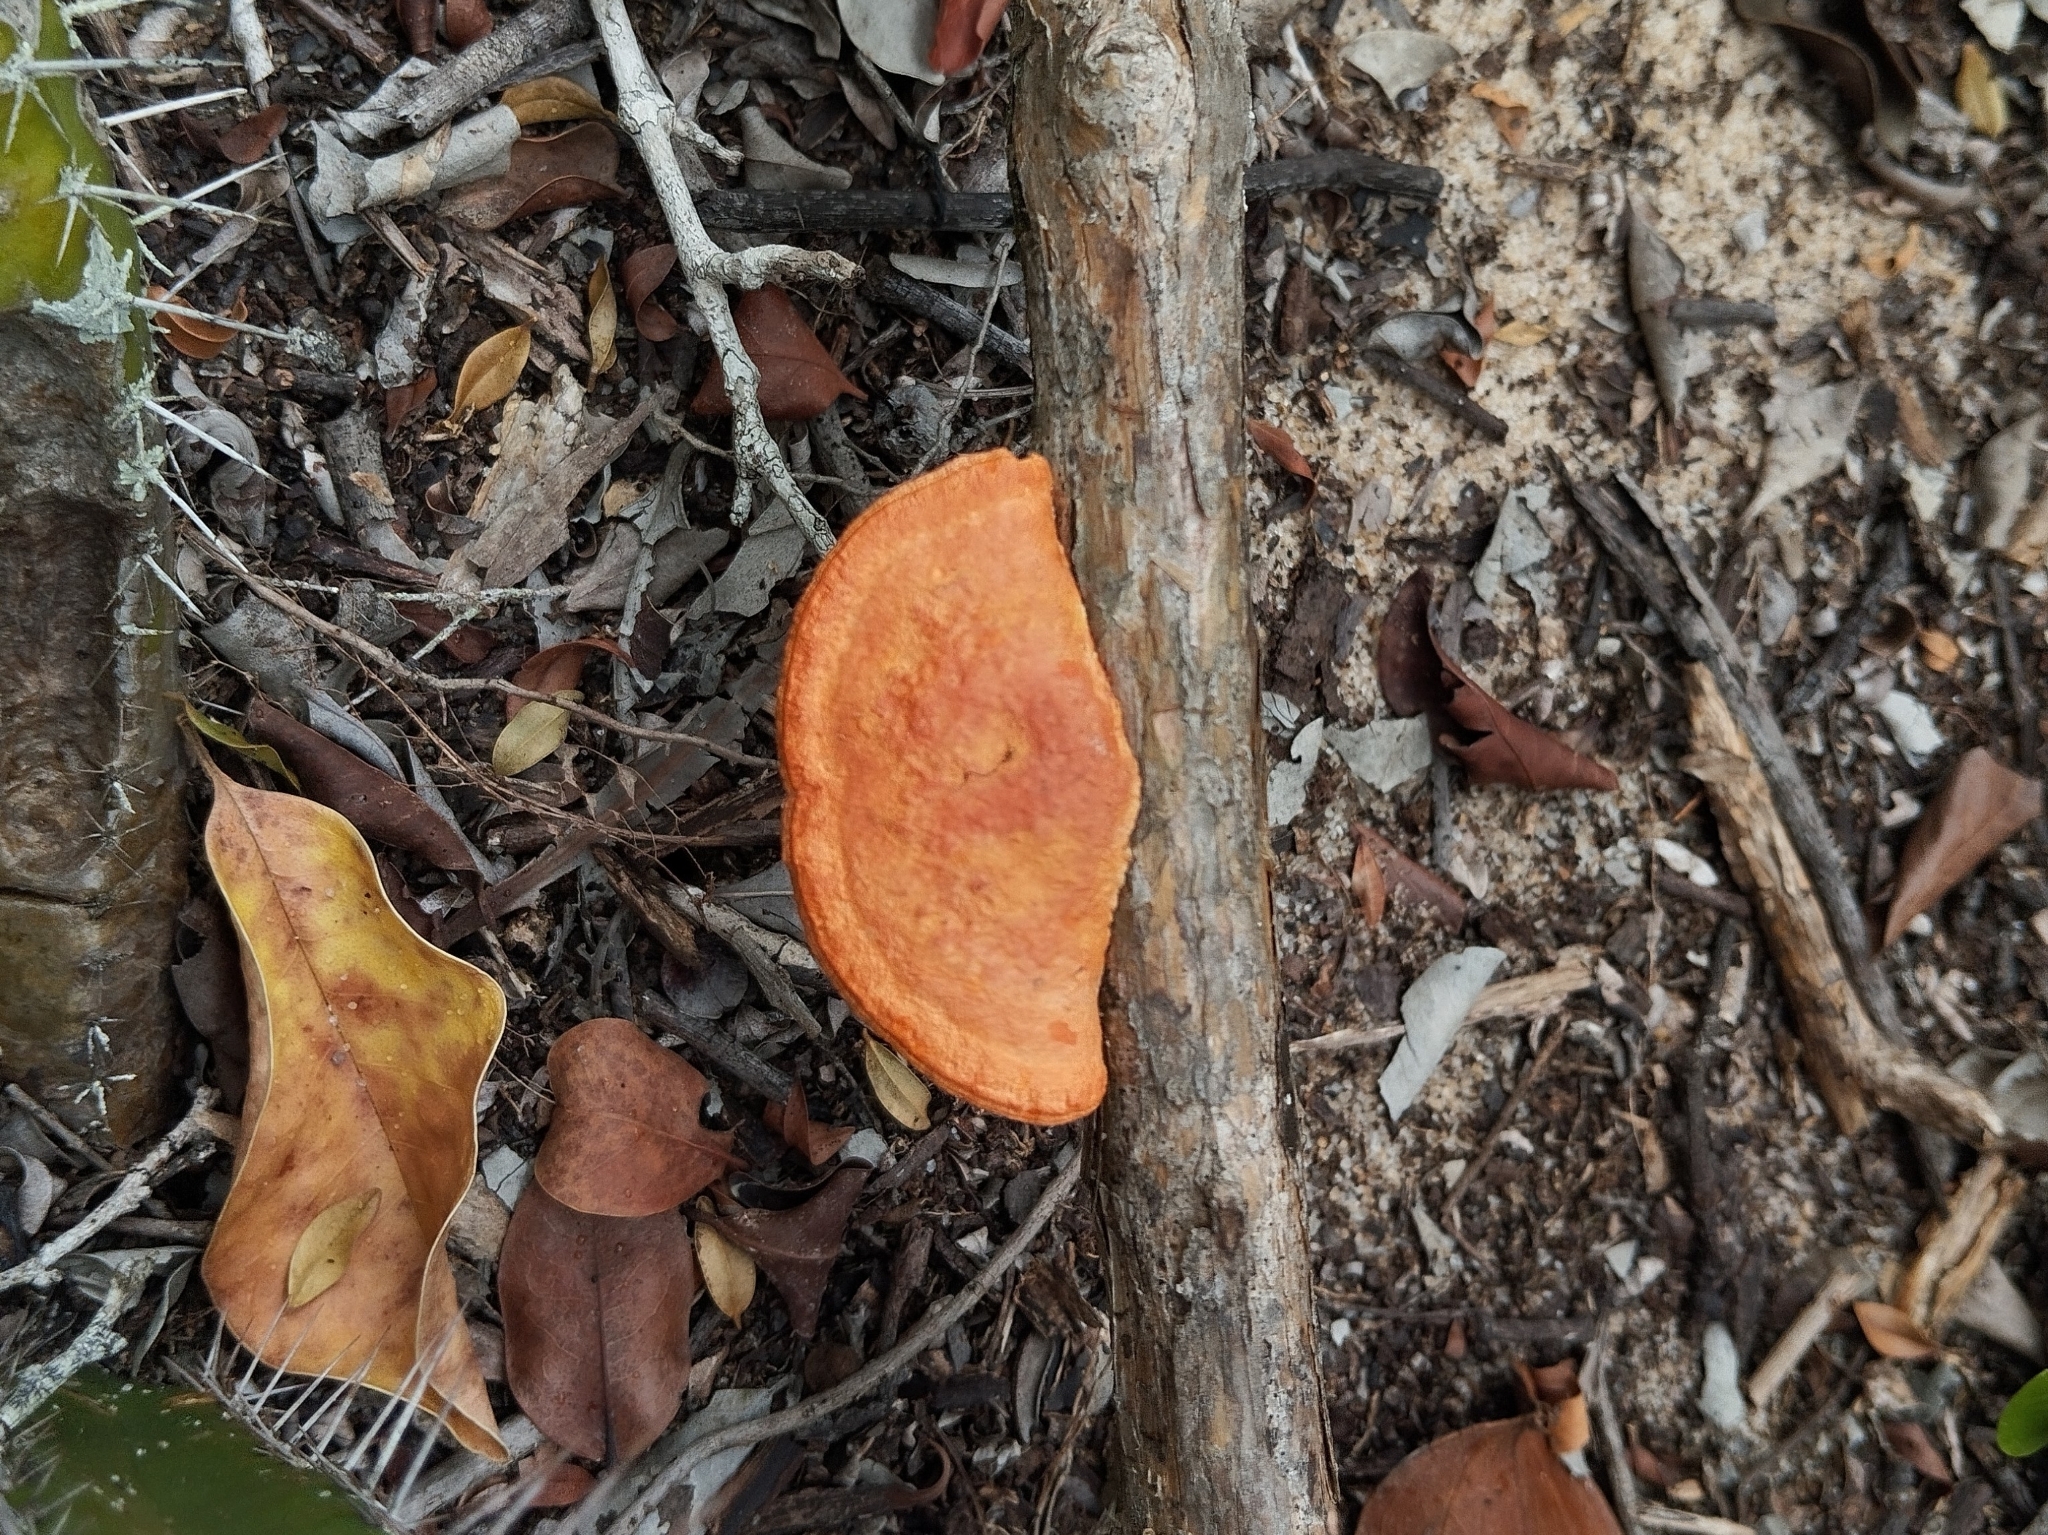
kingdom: Fungi
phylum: Basidiomycota
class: Agaricomycetes
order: Polyporales
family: Polyporaceae
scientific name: Polyporaceae
